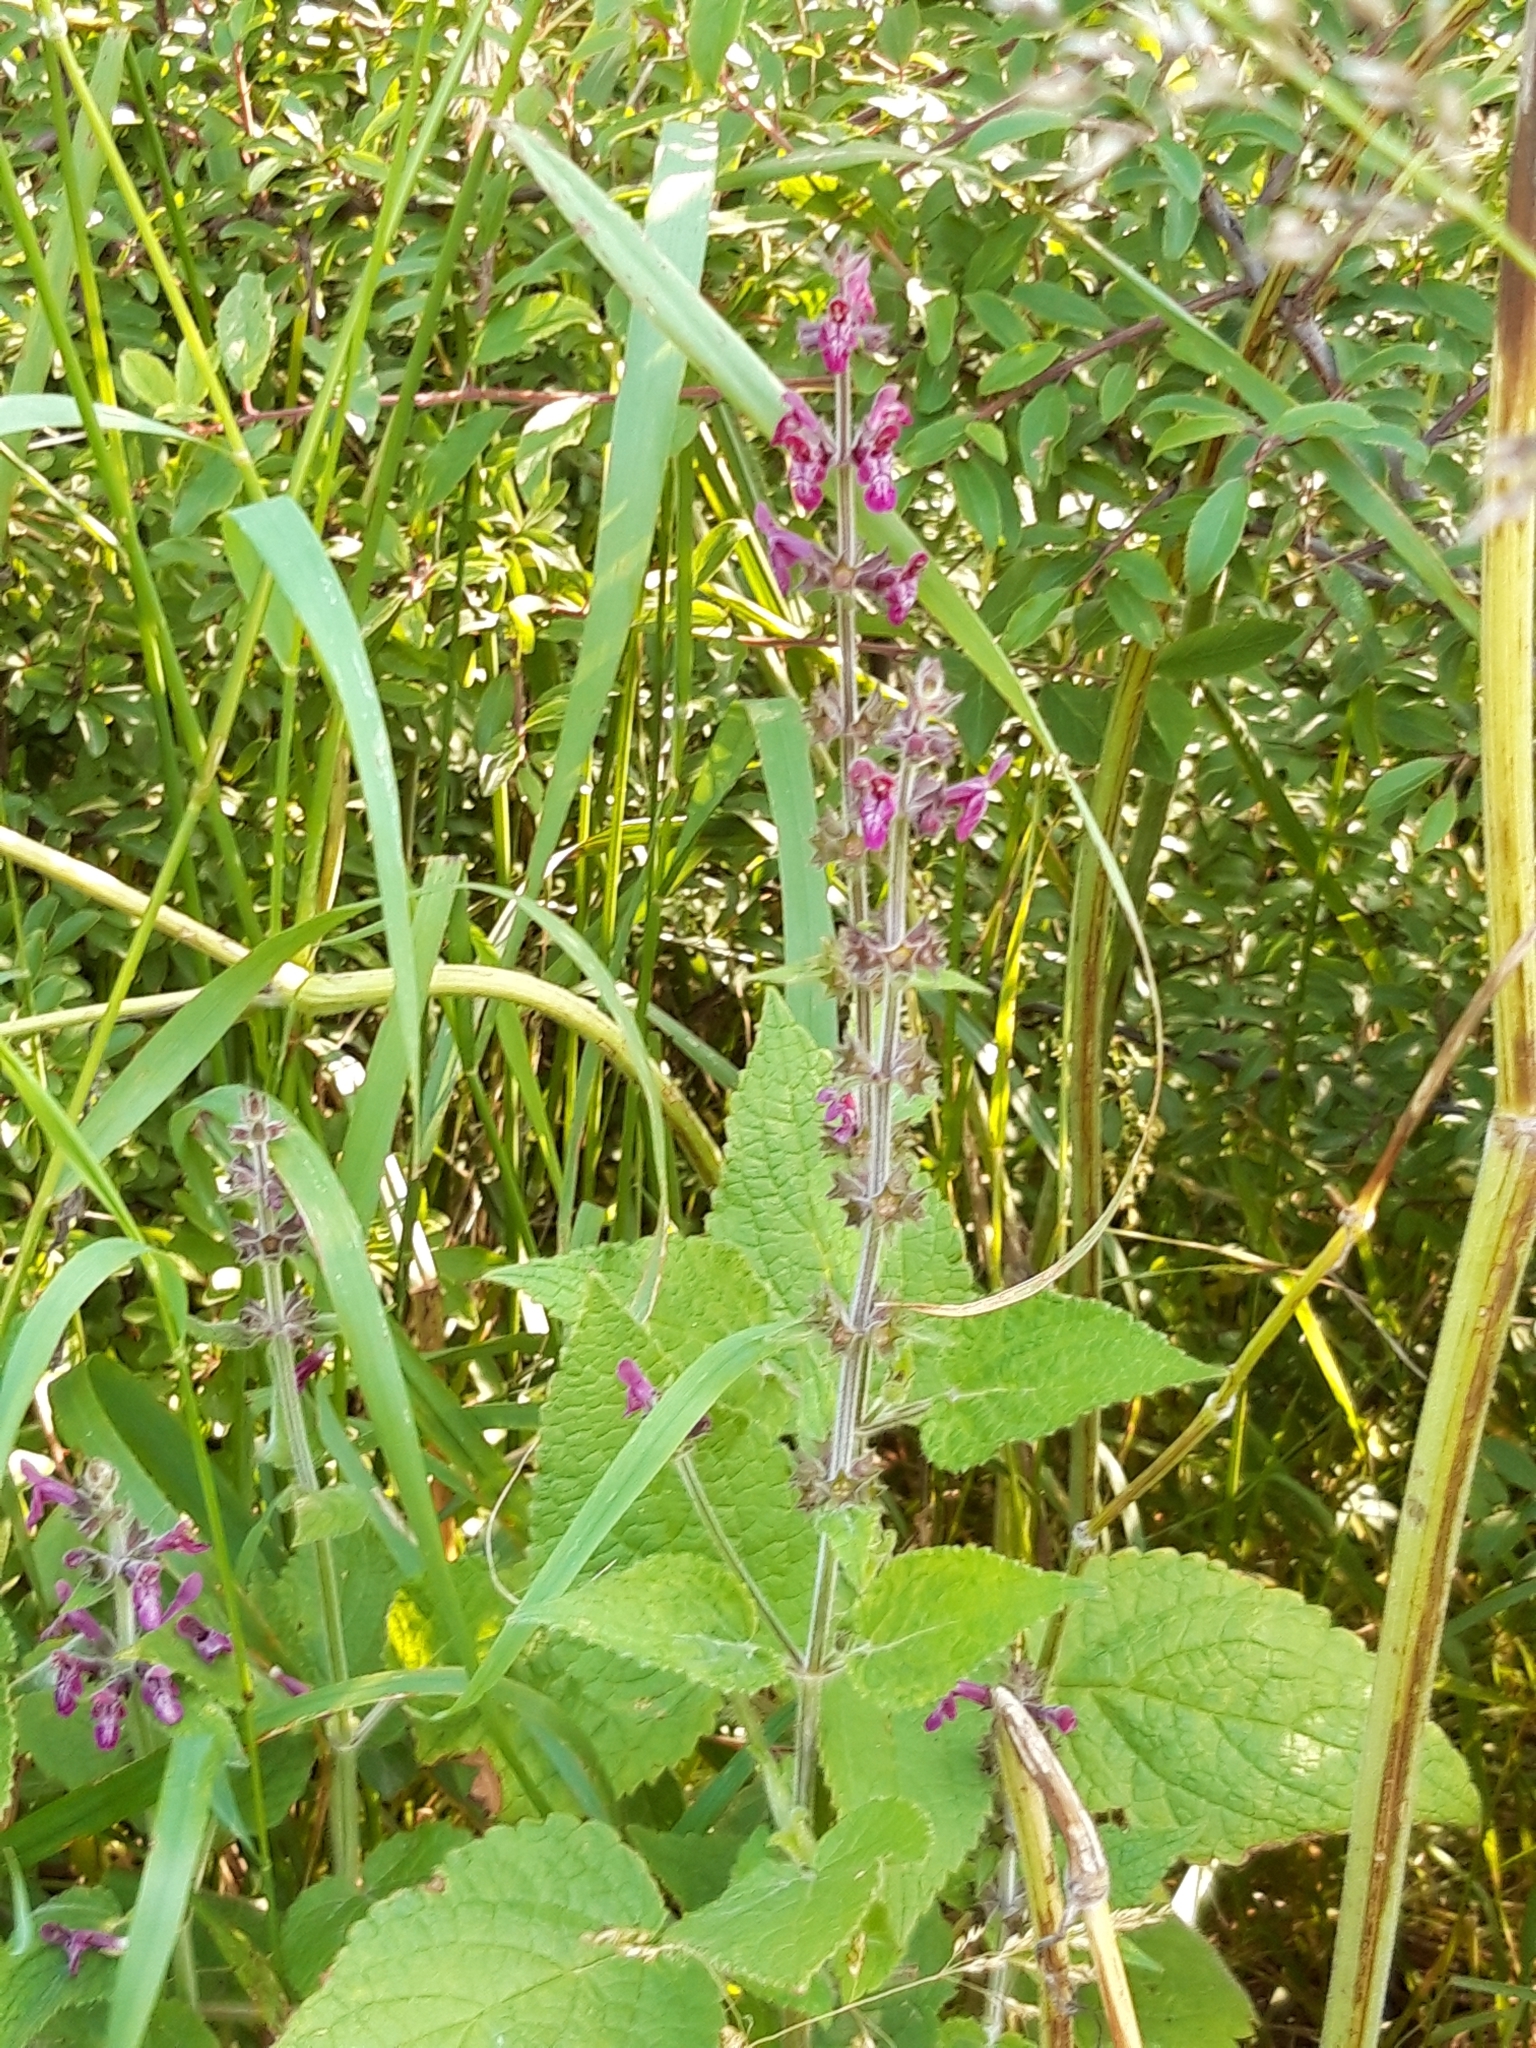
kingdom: Plantae
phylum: Tracheophyta
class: Magnoliopsida
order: Lamiales
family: Lamiaceae
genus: Stachys
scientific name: Stachys sylvatica
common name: Hedge woundwort
